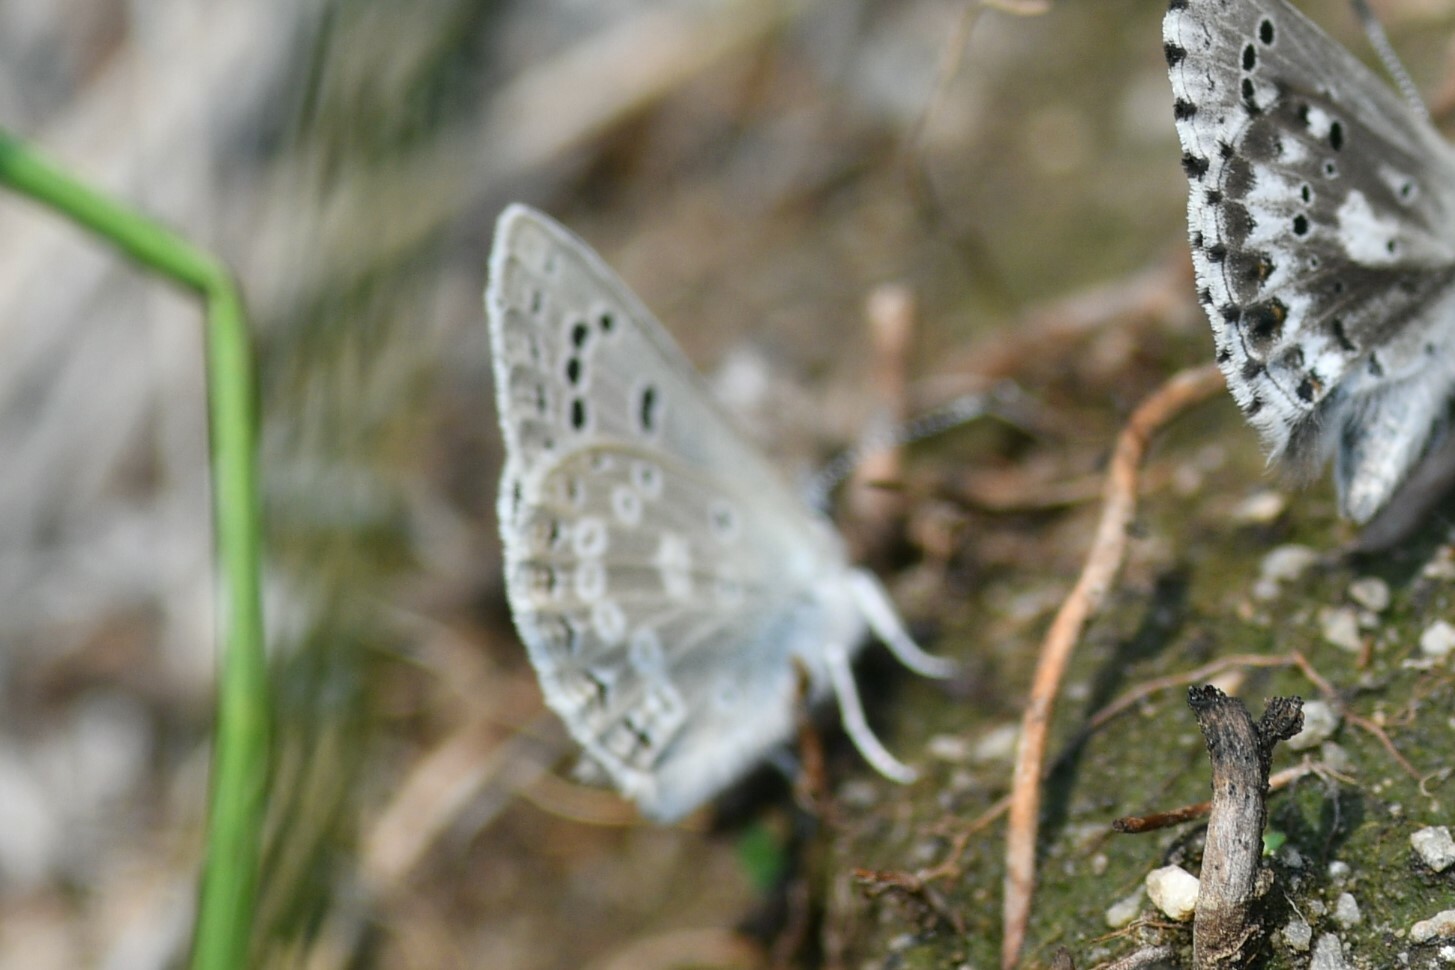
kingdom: Animalia
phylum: Arthropoda
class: Insecta
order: Lepidoptera
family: Lycaenidae
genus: Icaricia
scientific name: Icaricia icarioides
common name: Boisduval's blue
